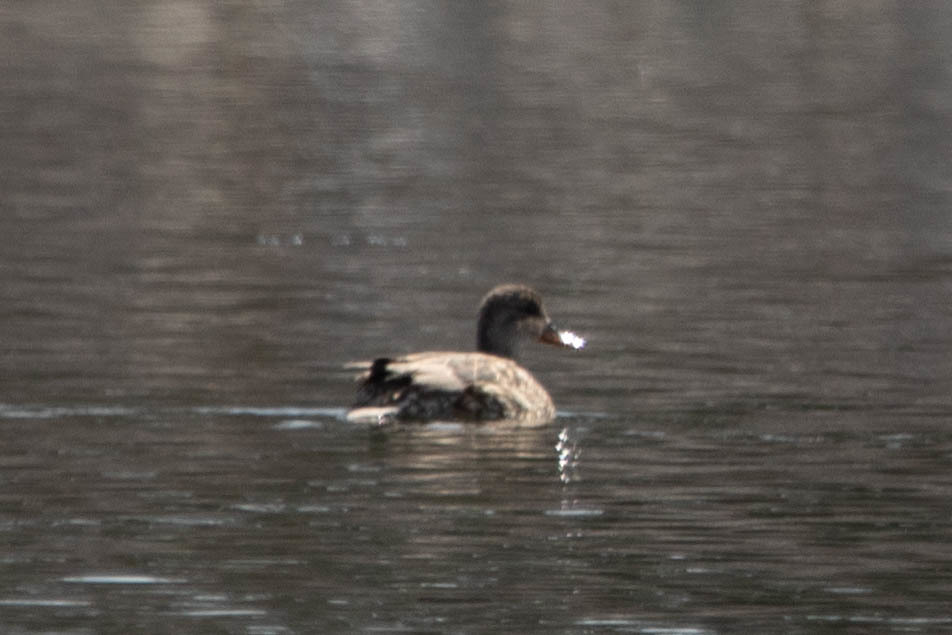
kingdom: Animalia
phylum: Chordata
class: Aves
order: Anseriformes
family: Anatidae
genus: Mareca
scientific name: Mareca strepera
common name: Gadwall
